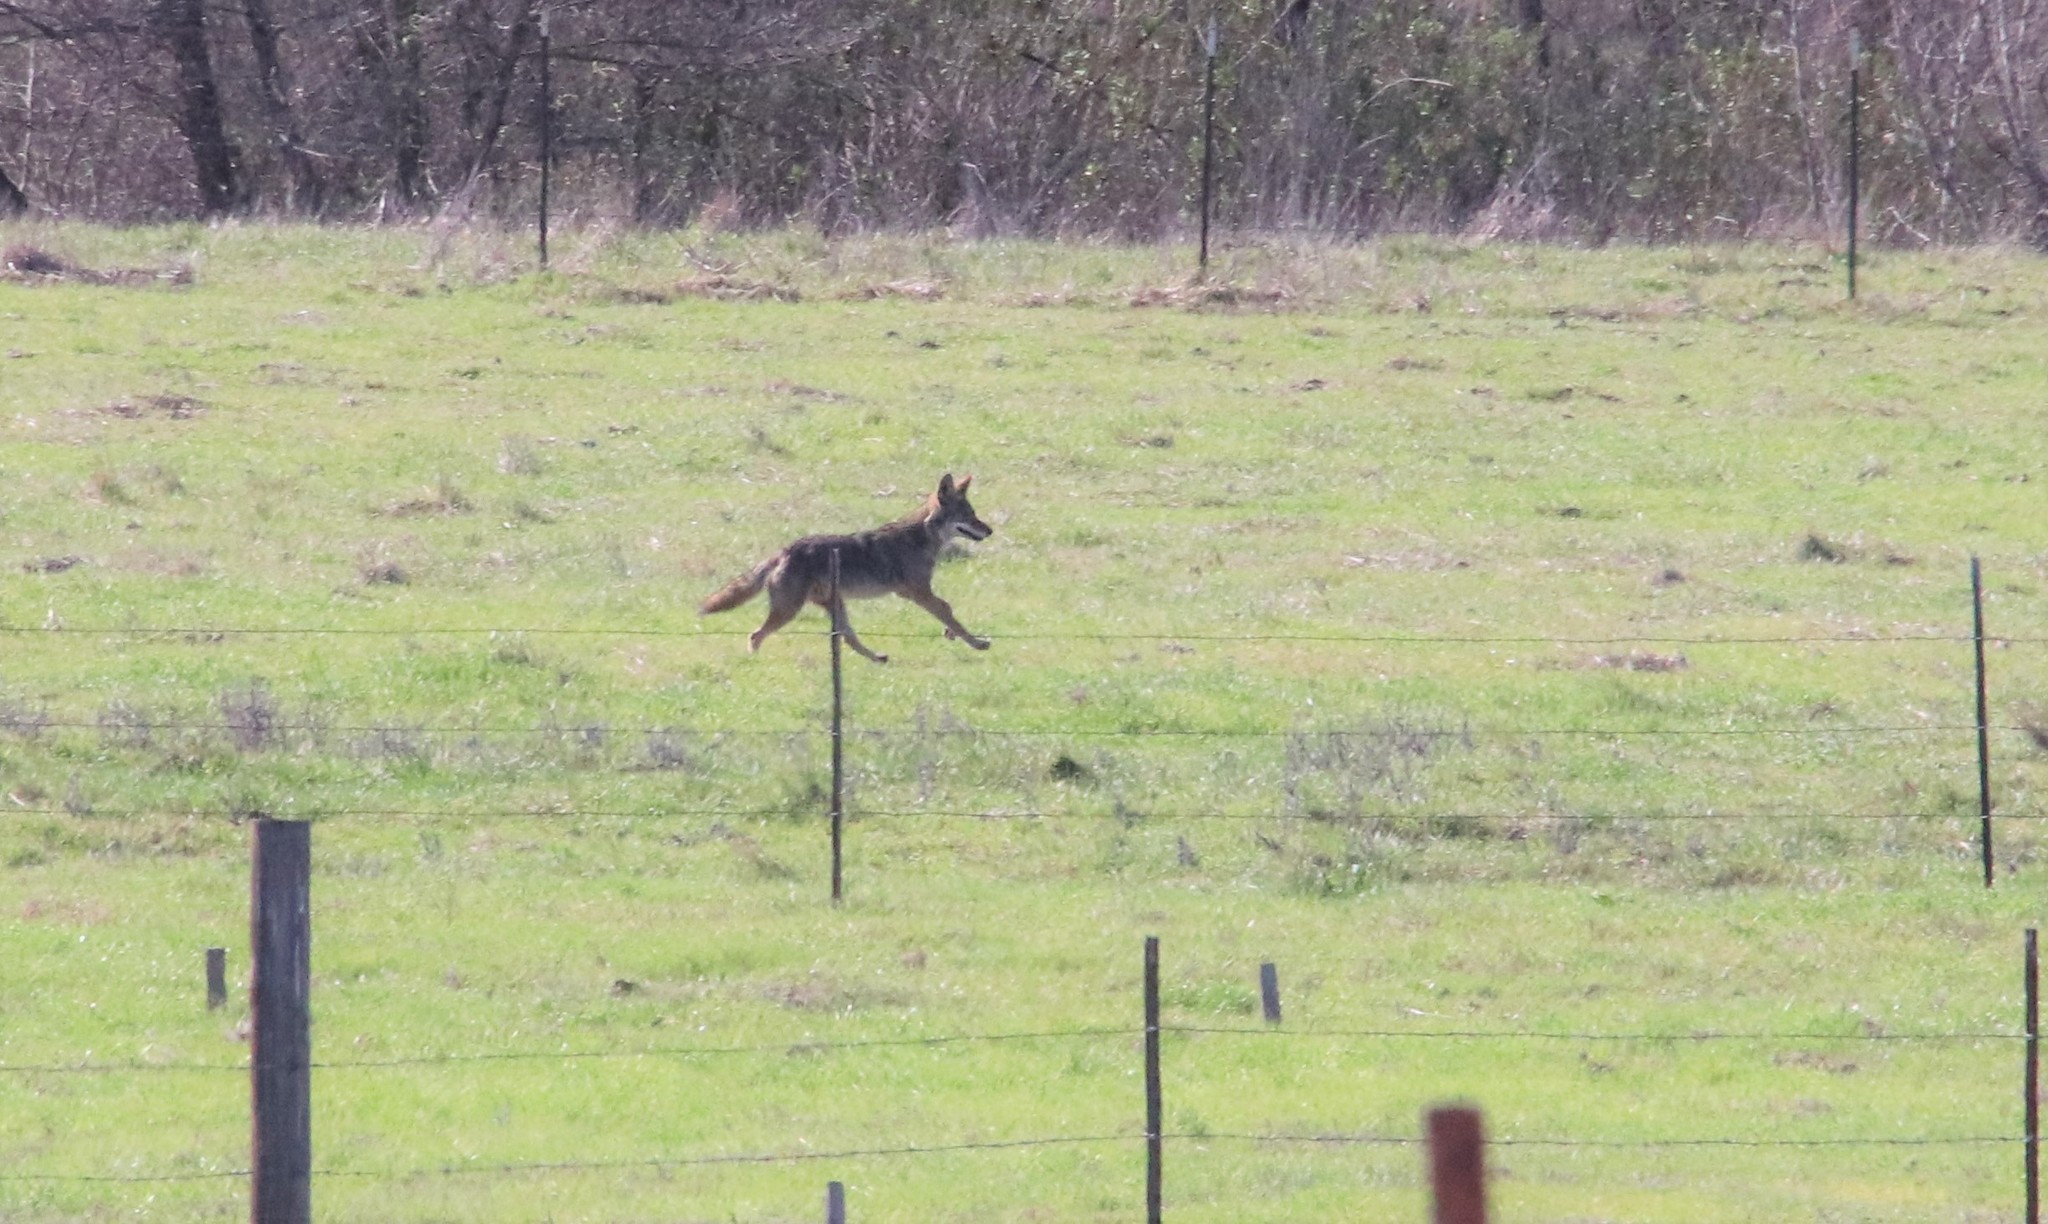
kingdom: Animalia
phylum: Chordata
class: Mammalia
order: Carnivora
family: Canidae
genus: Canis
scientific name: Canis latrans
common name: Coyote
